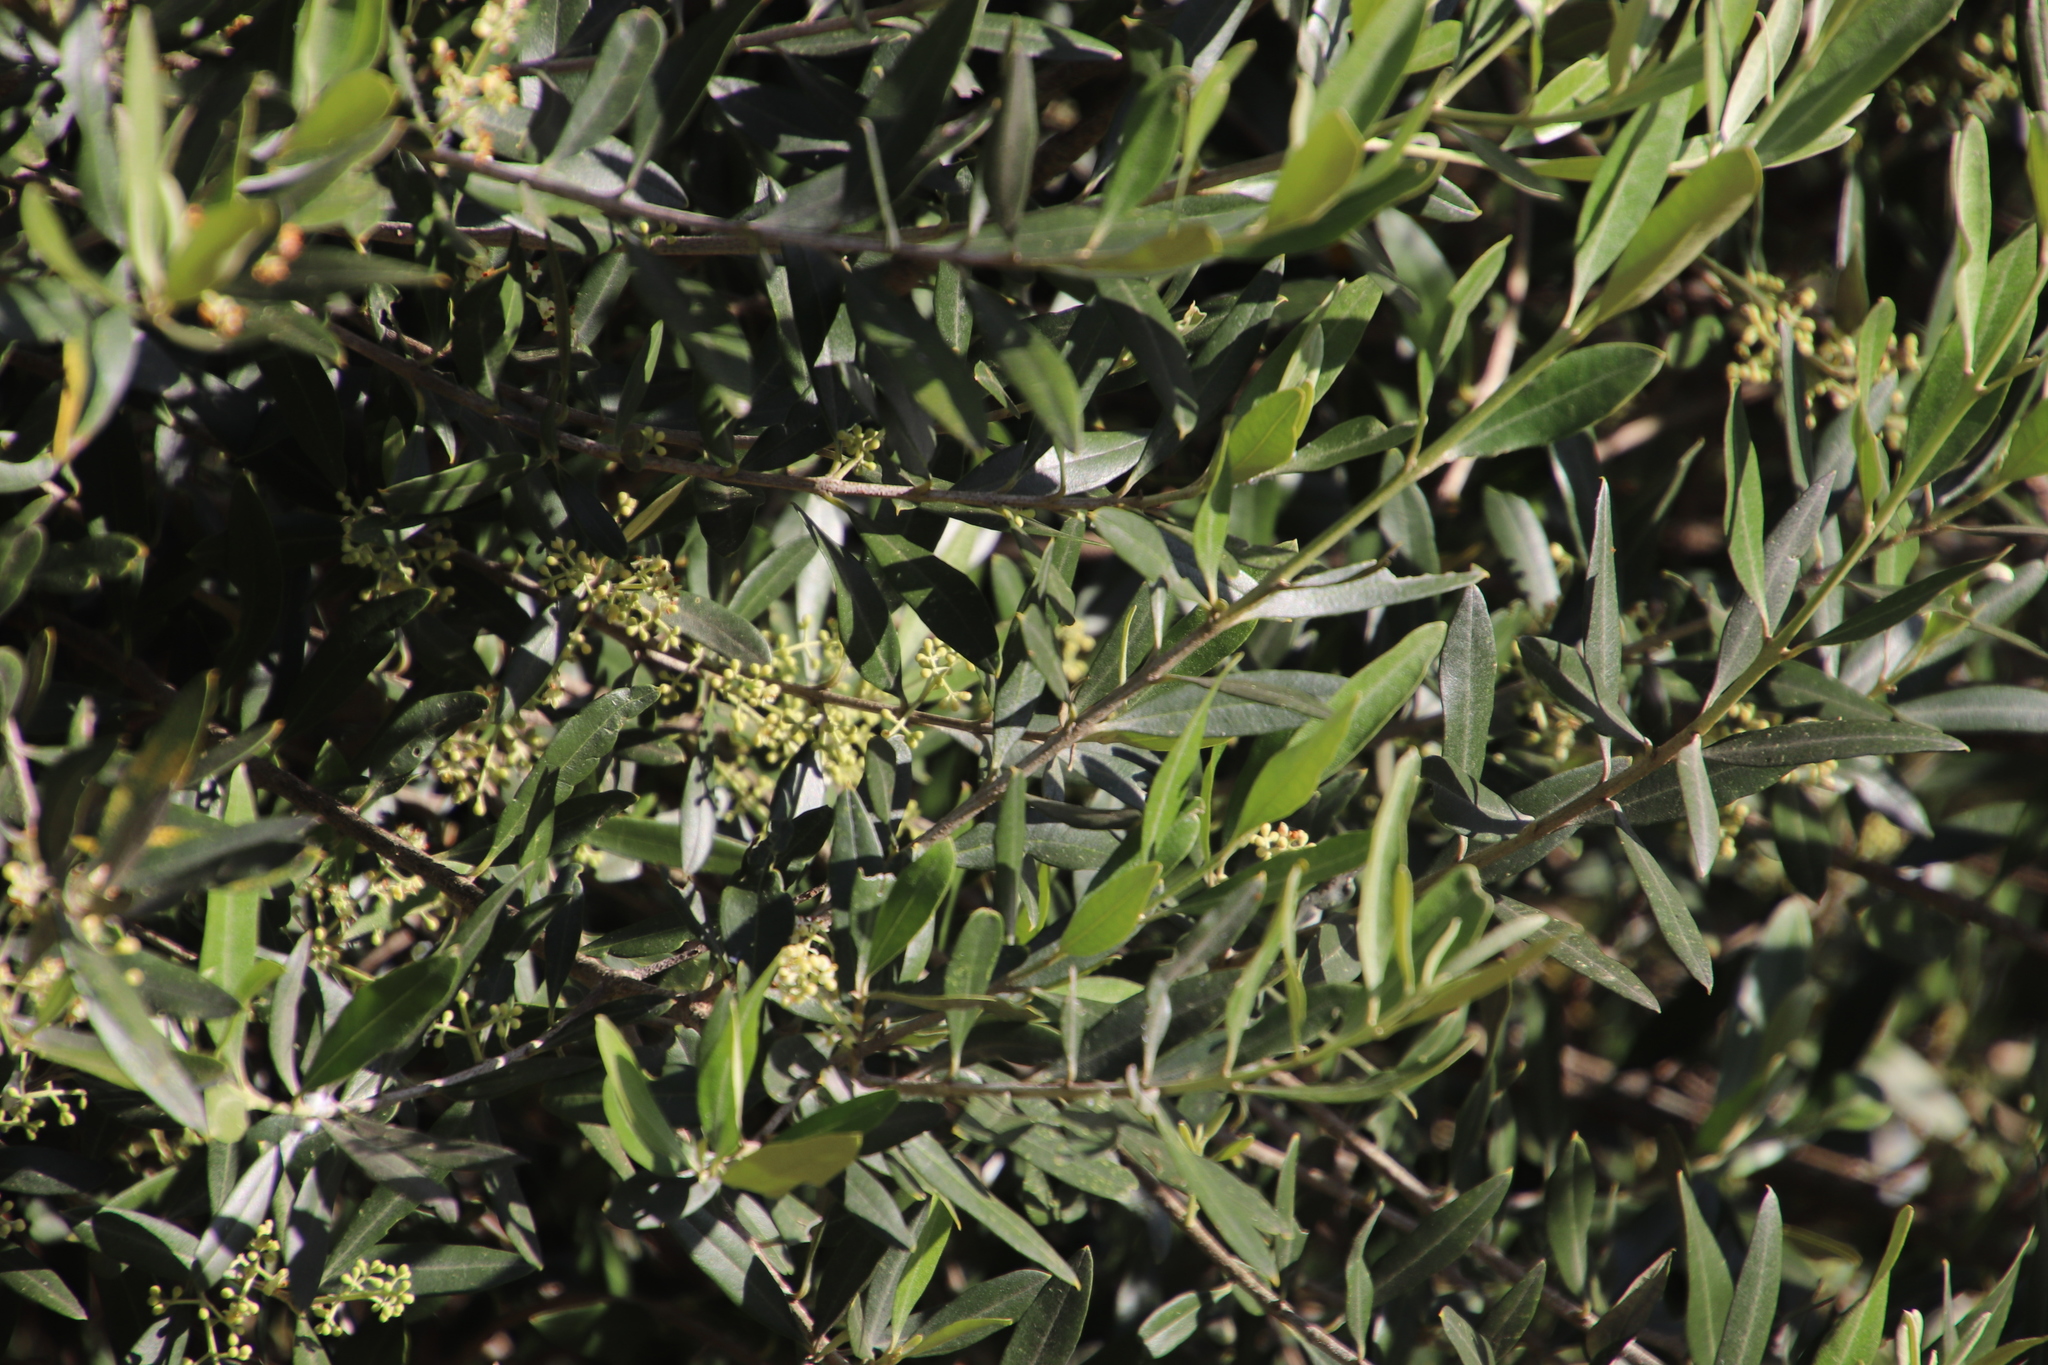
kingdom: Plantae
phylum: Tracheophyta
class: Magnoliopsida
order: Lamiales
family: Oleaceae
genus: Olea
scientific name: Olea europaea
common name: Olive
